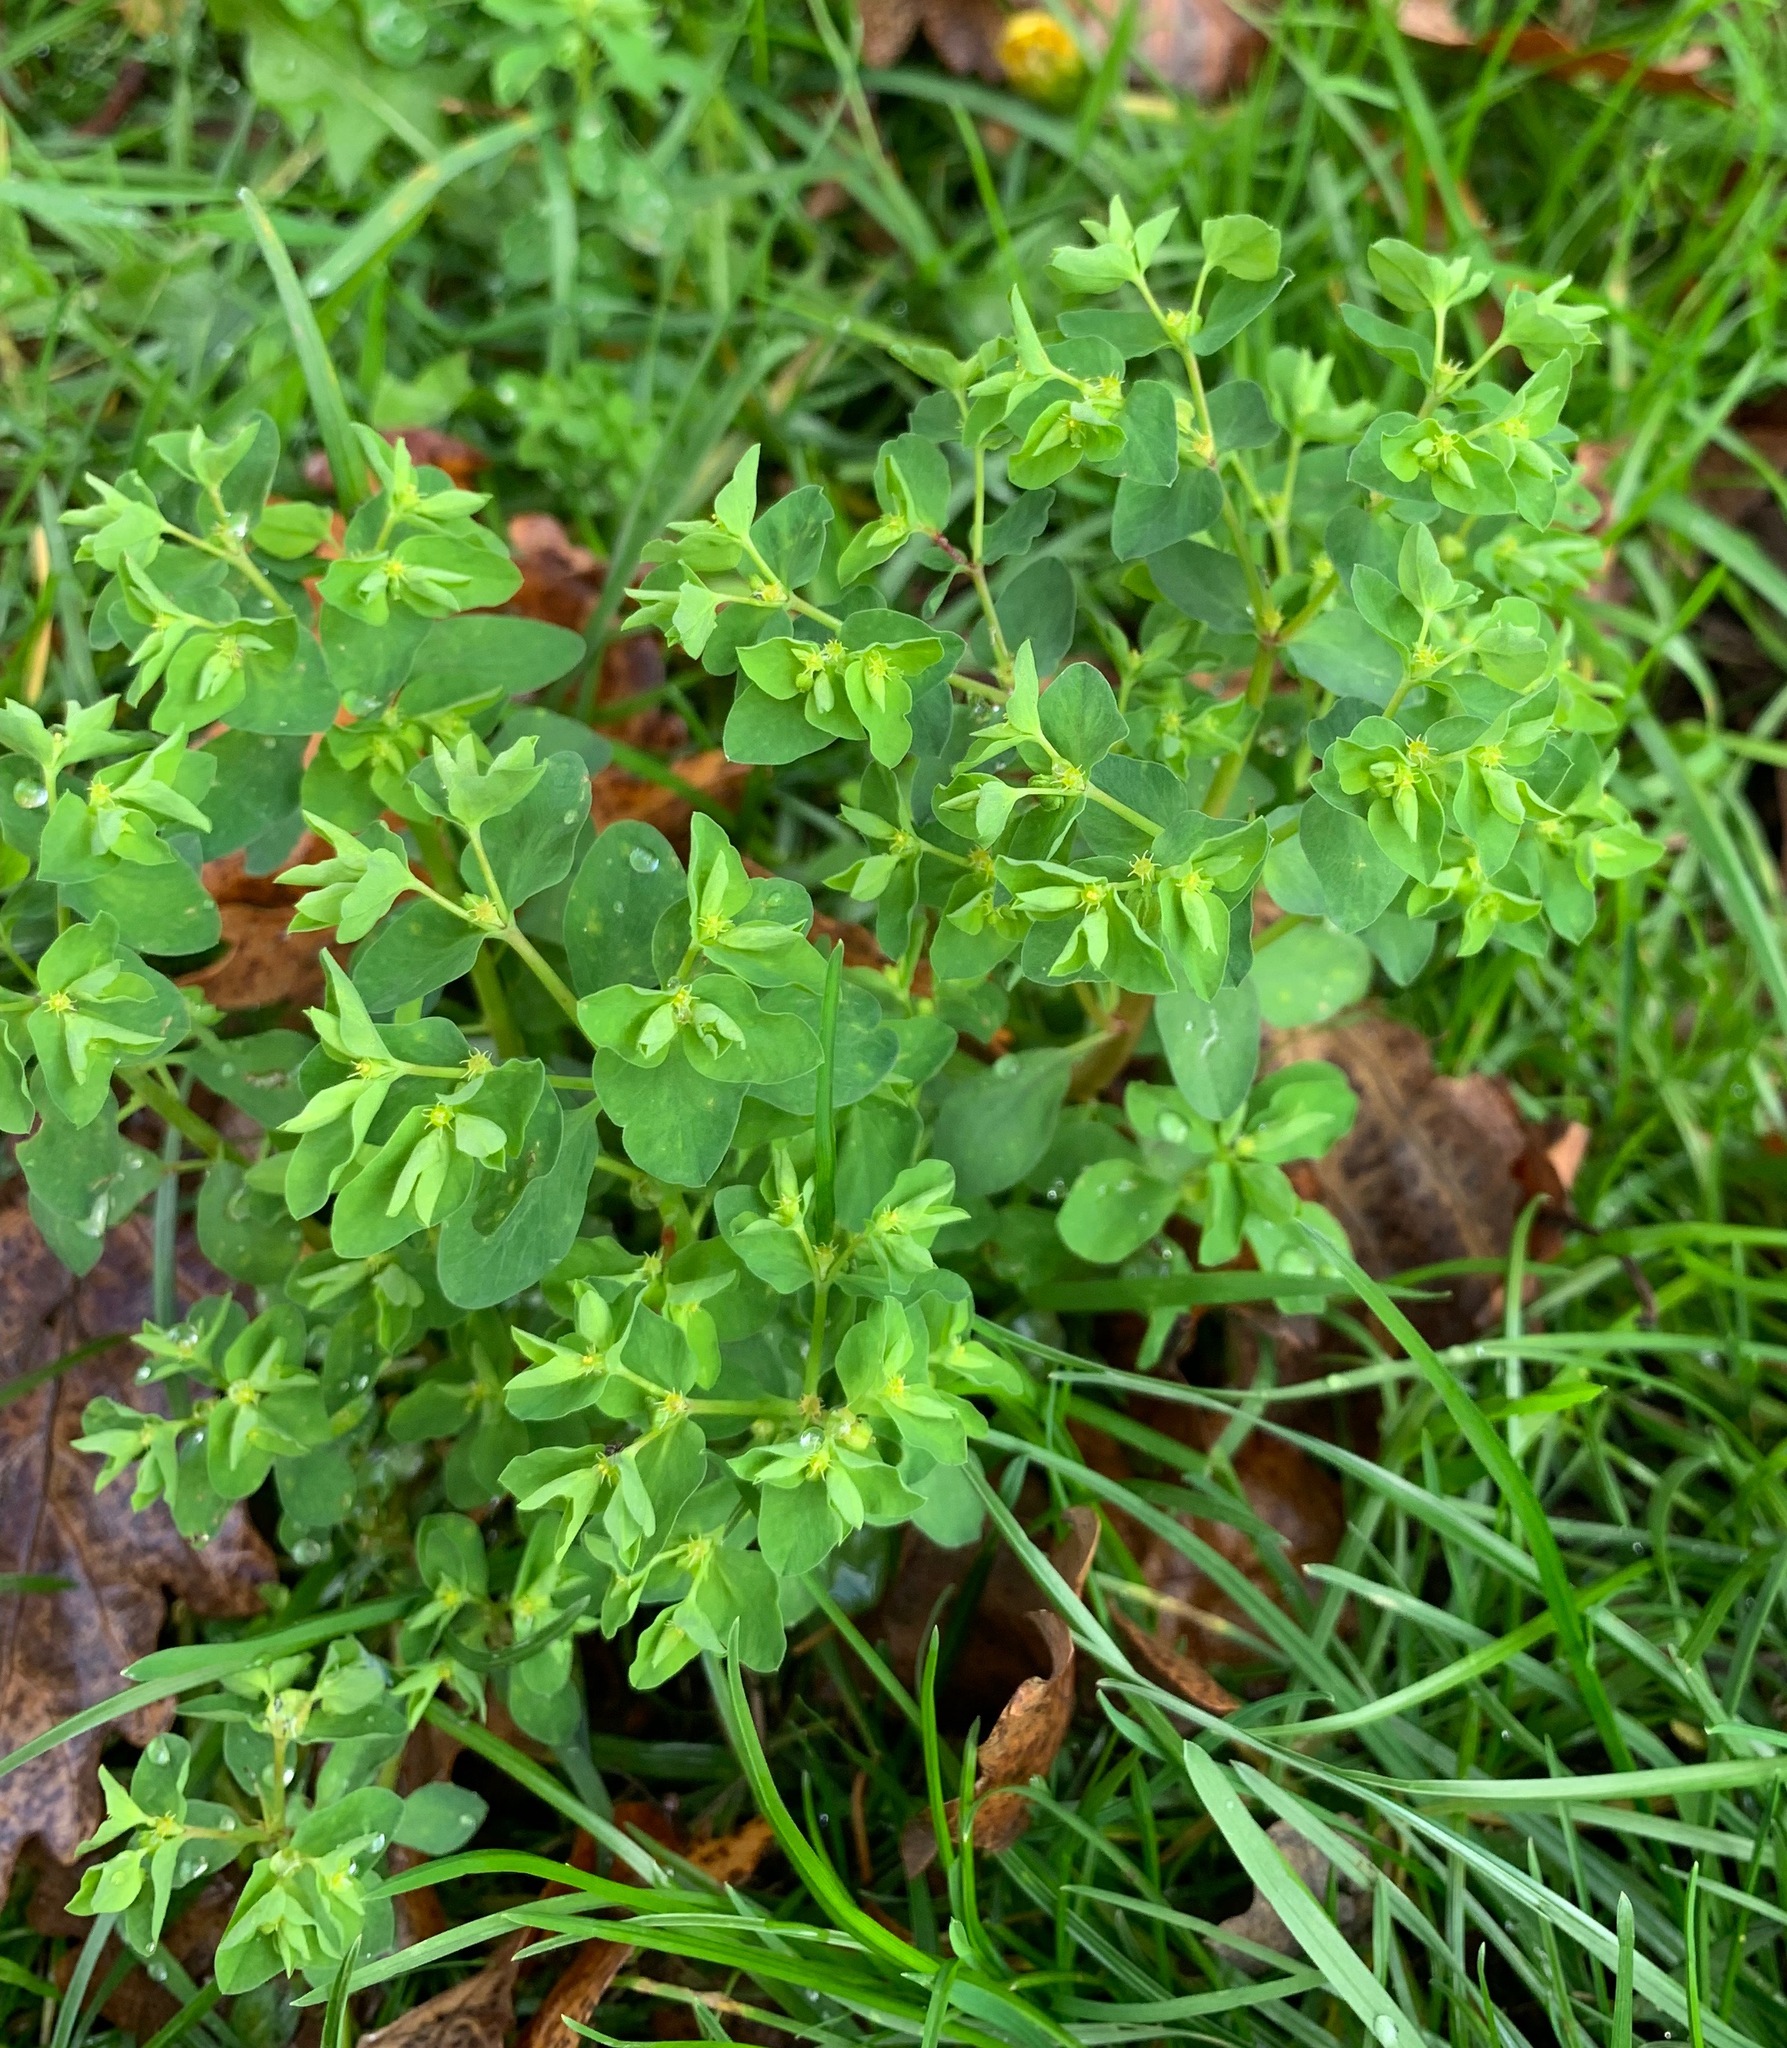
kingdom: Plantae
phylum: Tracheophyta
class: Magnoliopsida
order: Malpighiales
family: Euphorbiaceae
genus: Euphorbia
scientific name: Euphorbia peplus
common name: Petty spurge
